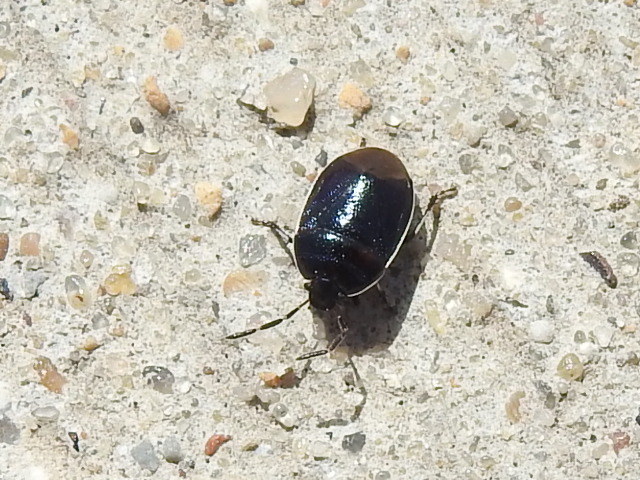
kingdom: Animalia
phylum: Arthropoda
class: Insecta
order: Hemiptera
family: Cydnidae
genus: Sehirus
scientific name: Sehirus cinctus
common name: White-margined burrower bug
